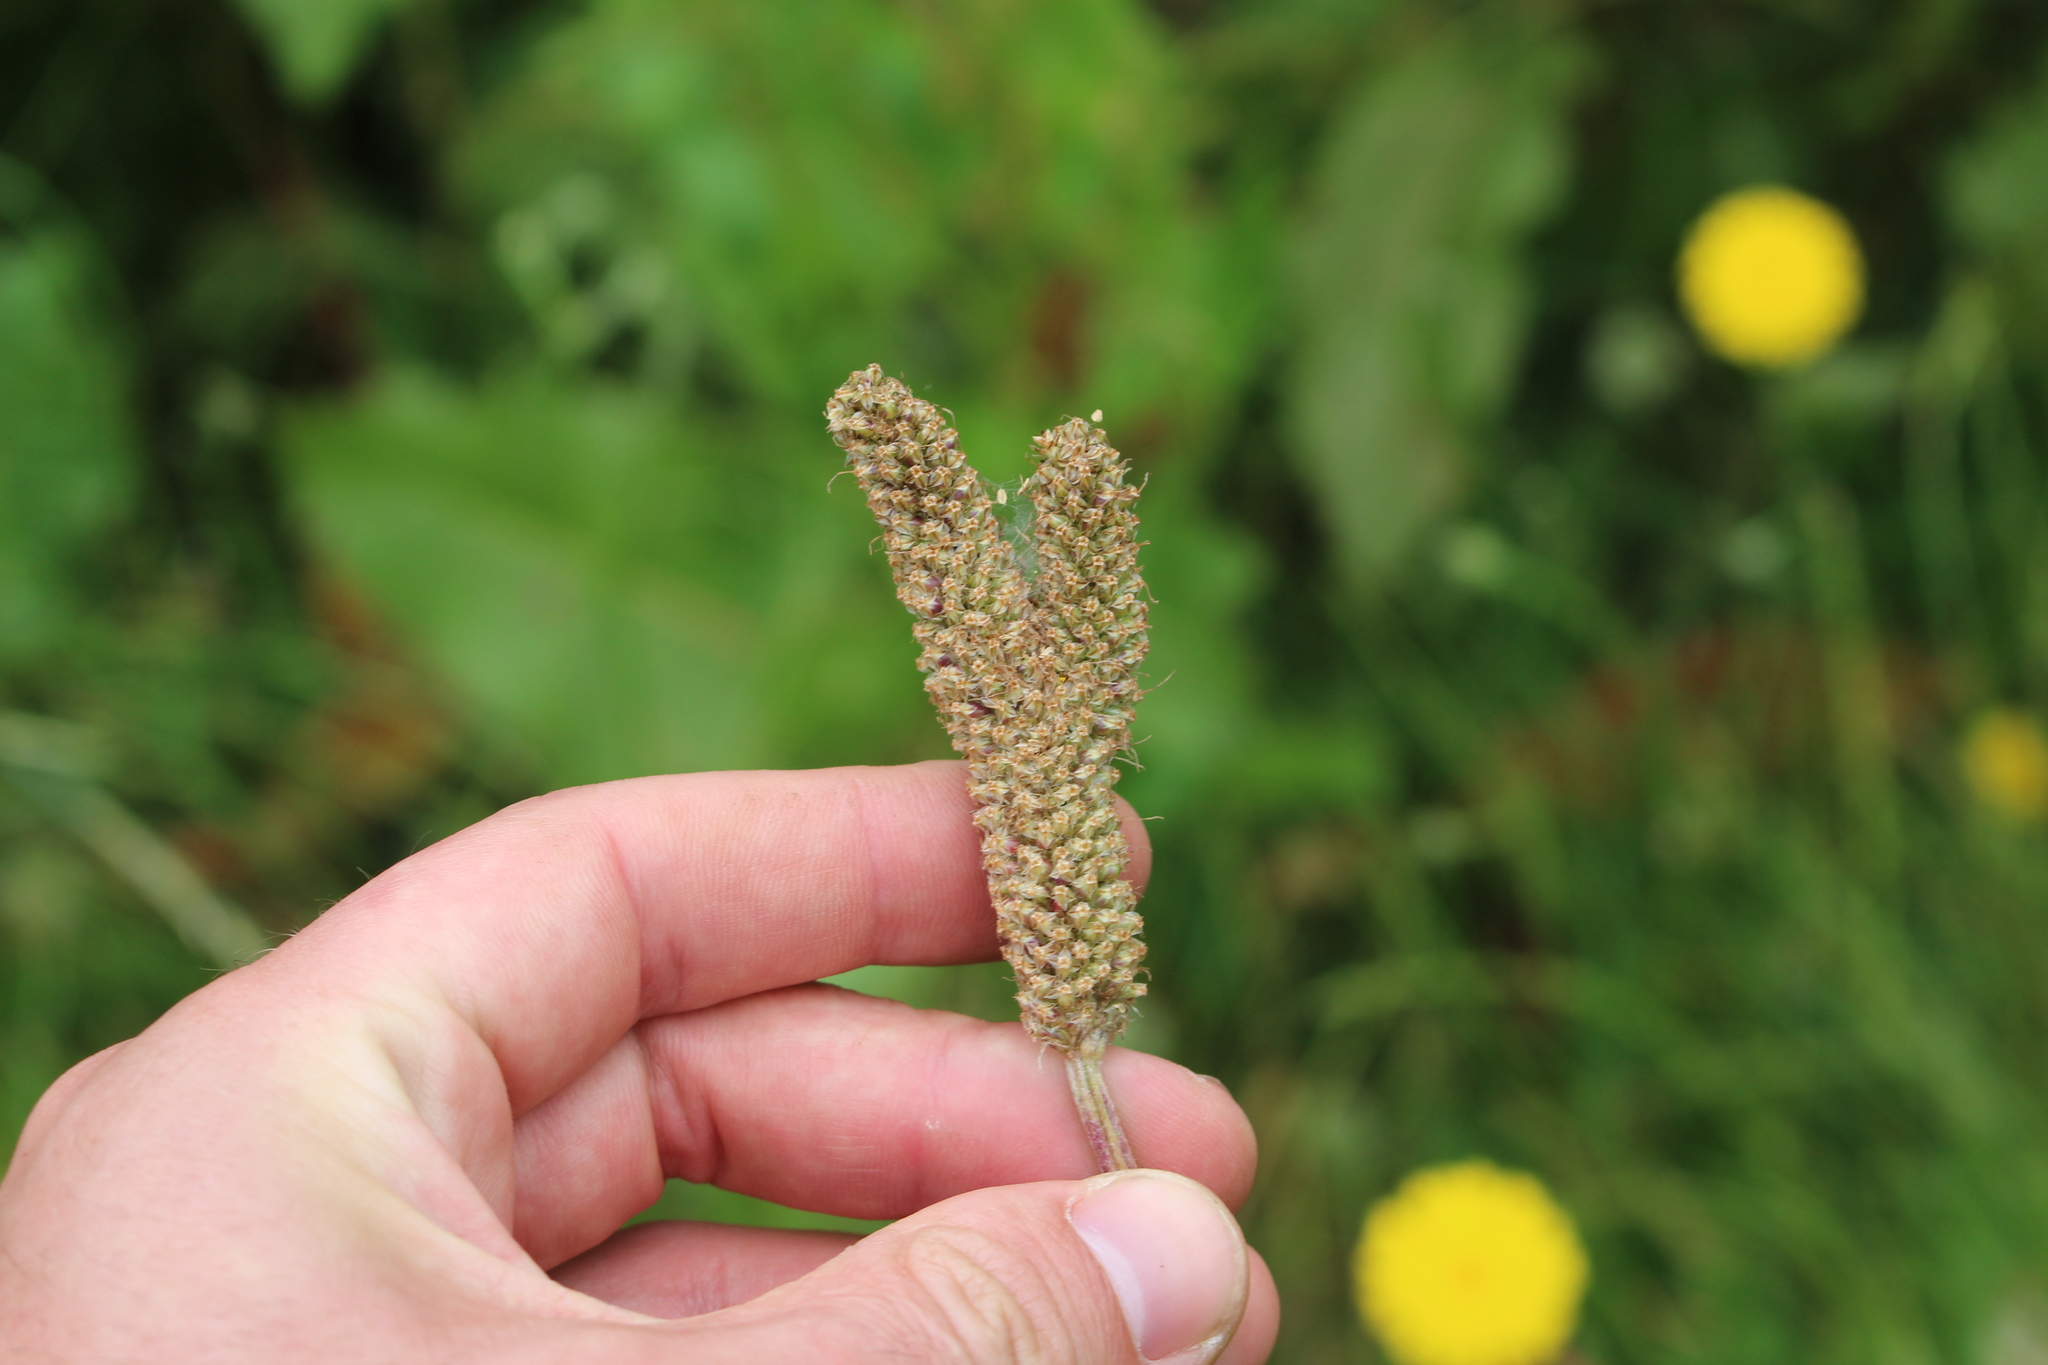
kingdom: Plantae
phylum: Tracheophyta
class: Magnoliopsida
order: Lamiales
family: Plantaginaceae
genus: Plantago
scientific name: Plantago lanceolata
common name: Ribwort plantain
